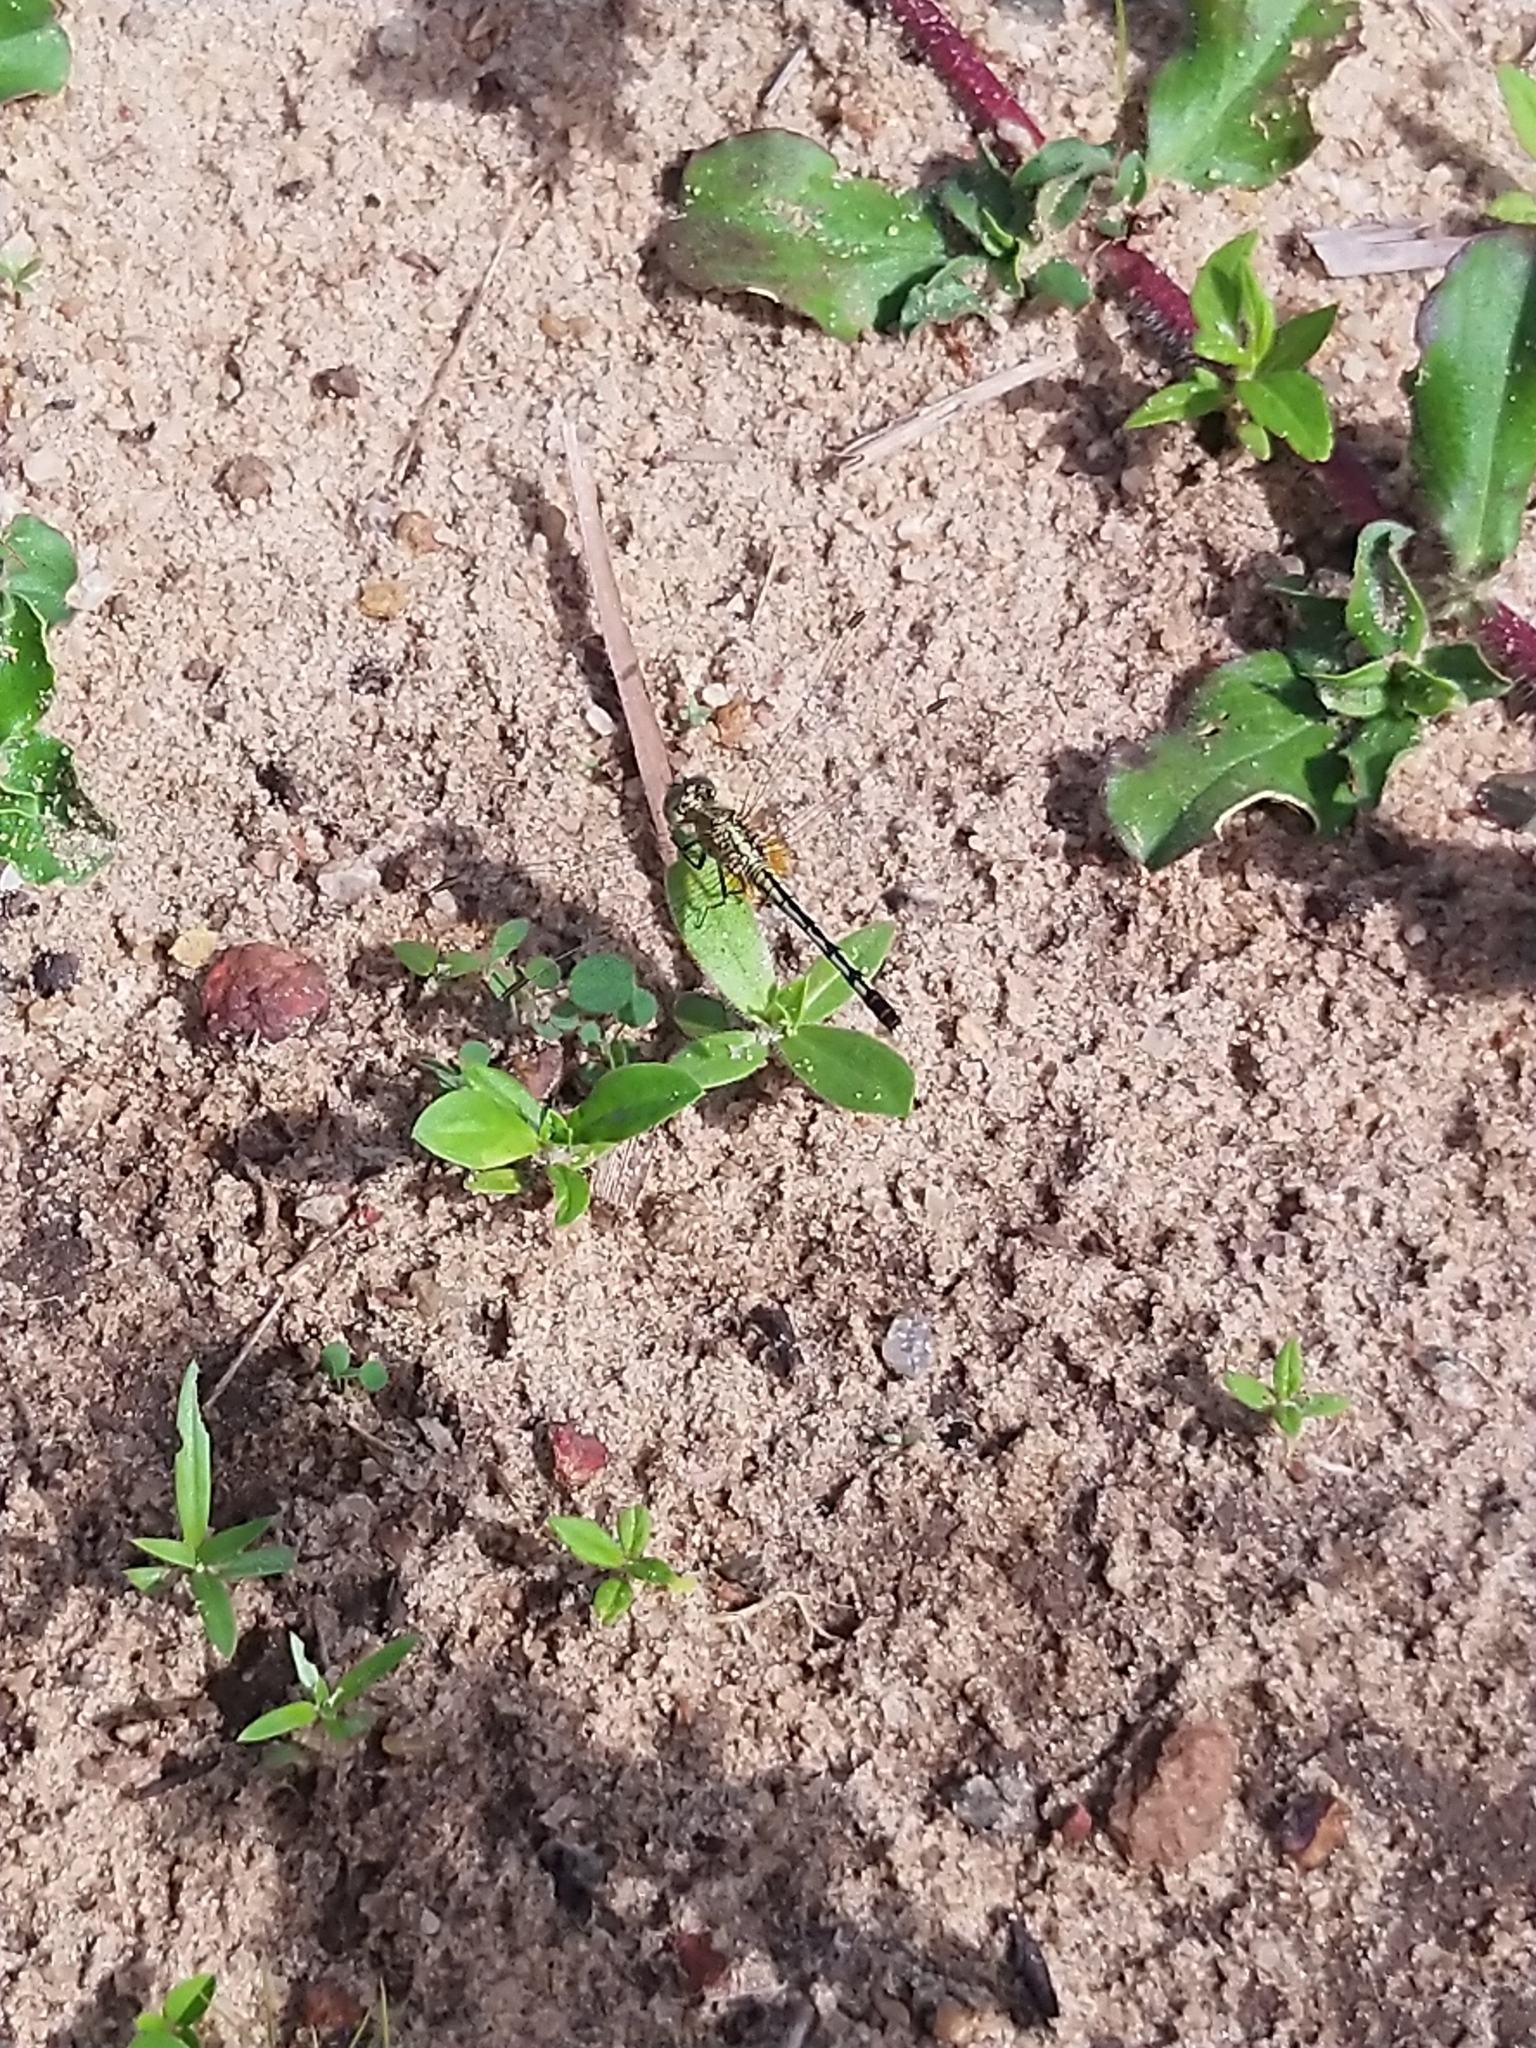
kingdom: Animalia
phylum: Arthropoda
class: Insecta
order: Odonata
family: Libellulidae
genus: Diplacodes
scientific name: Diplacodes trivialis
